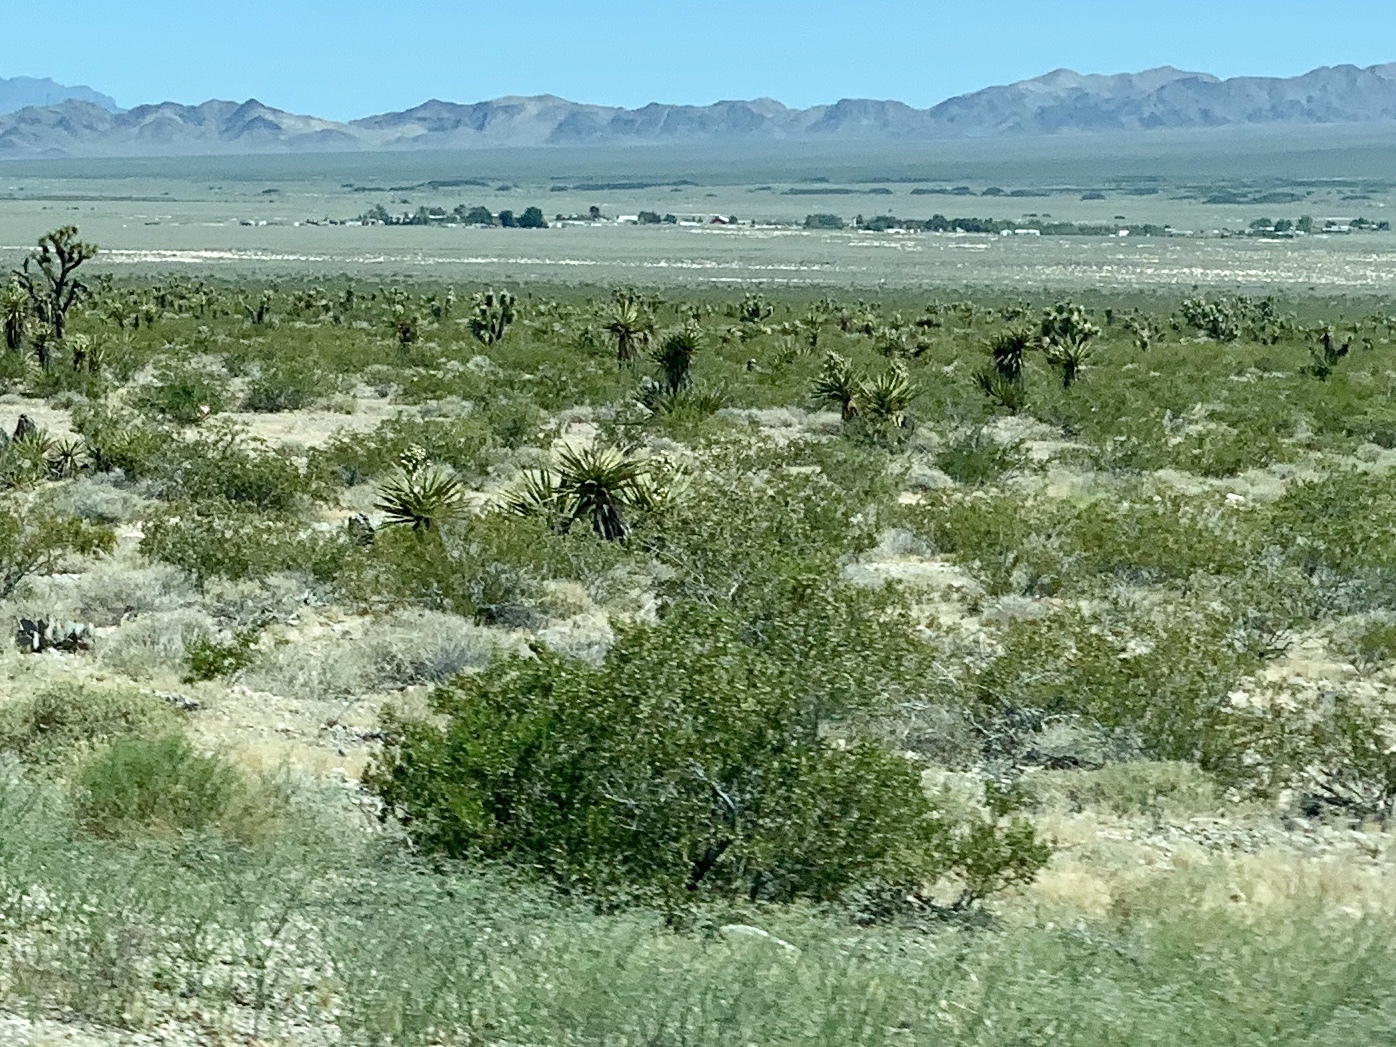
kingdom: Plantae
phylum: Tracheophyta
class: Magnoliopsida
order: Zygophyllales
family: Zygophyllaceae
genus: Larrea
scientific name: Larrea tridentata
